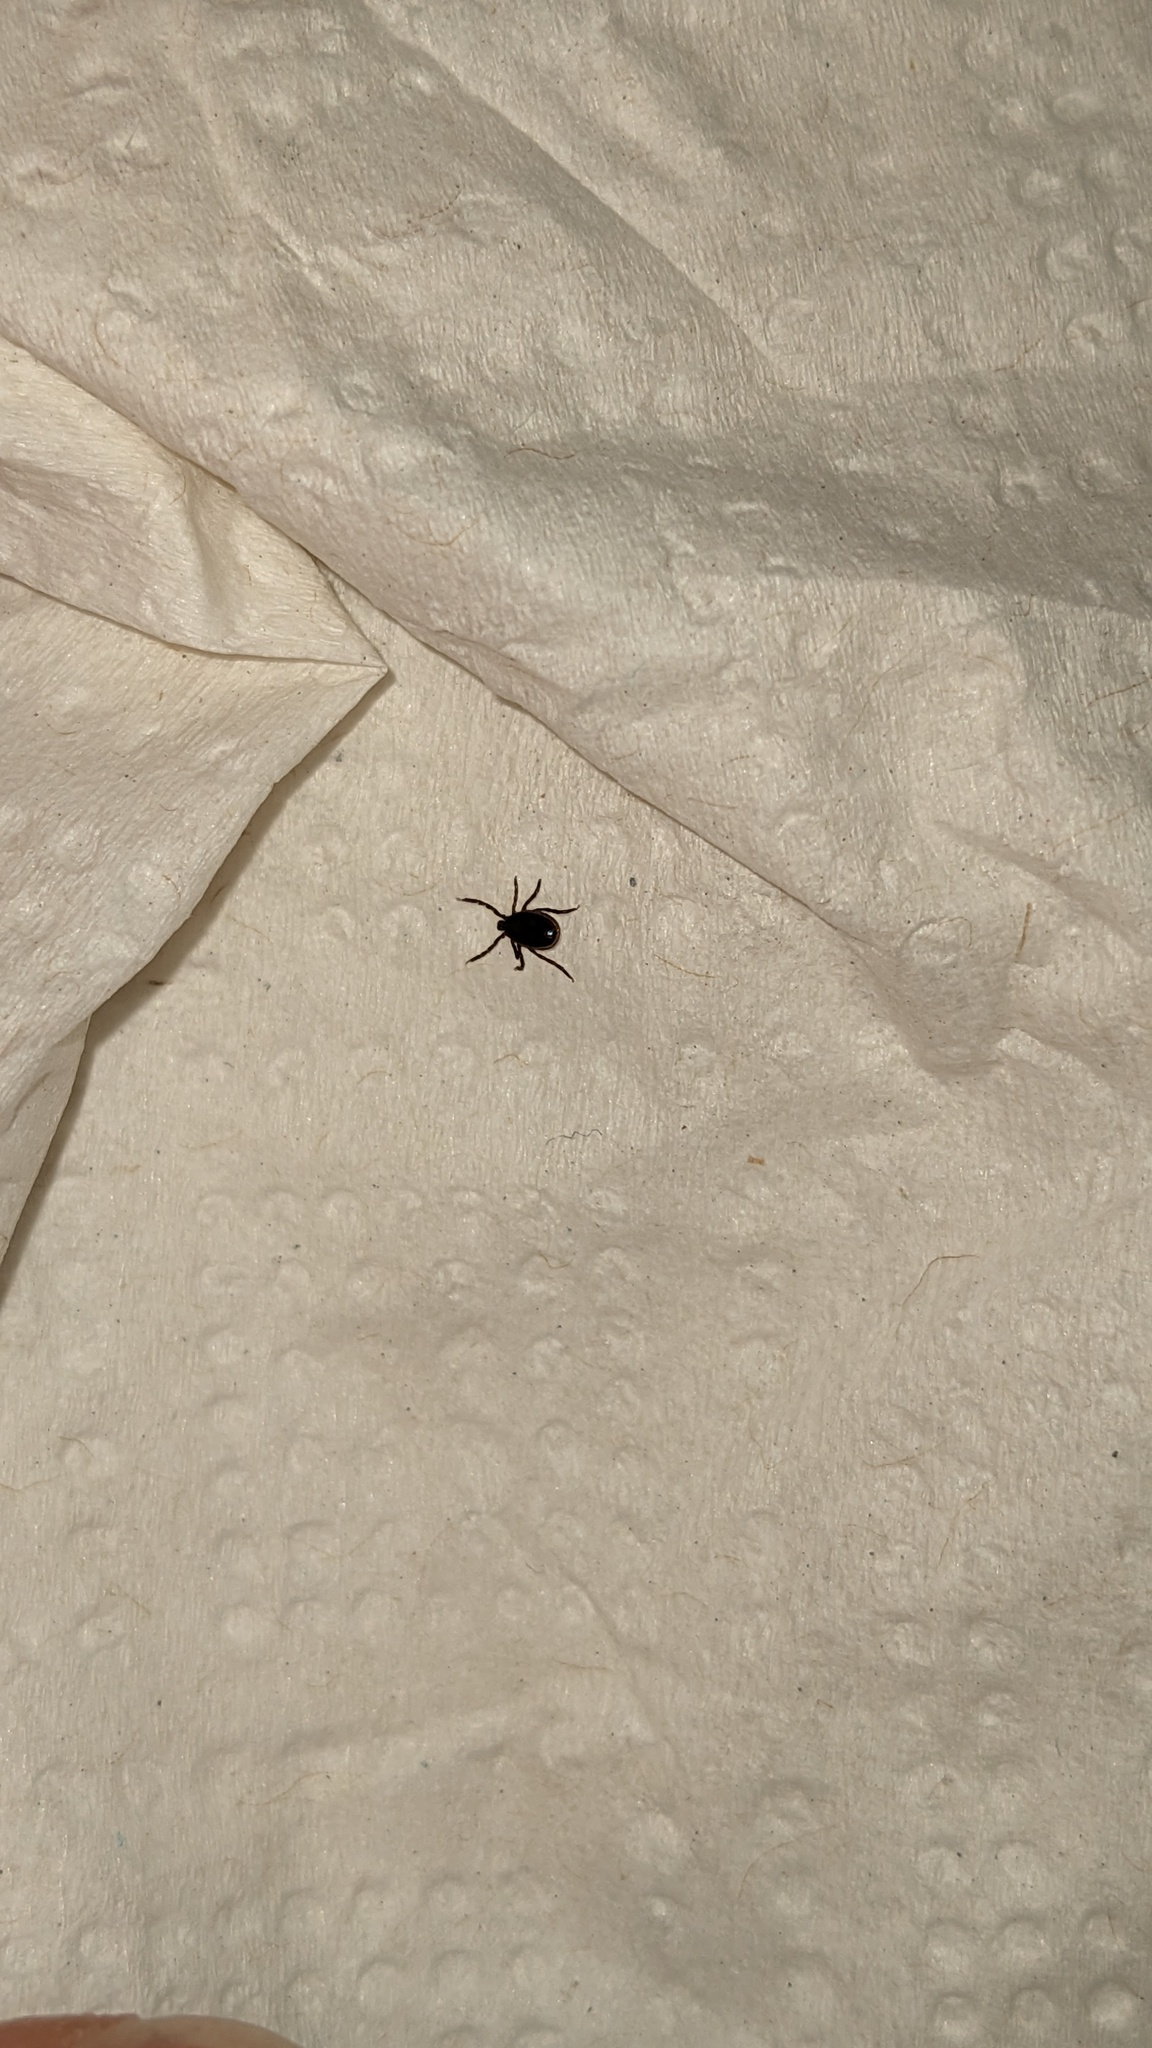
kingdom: Animalia
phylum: Arthropoda
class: Arachnida
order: Ixodida
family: Ixodidae
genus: Ixodes
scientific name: Ixodes scapularis
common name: Black legged tick
